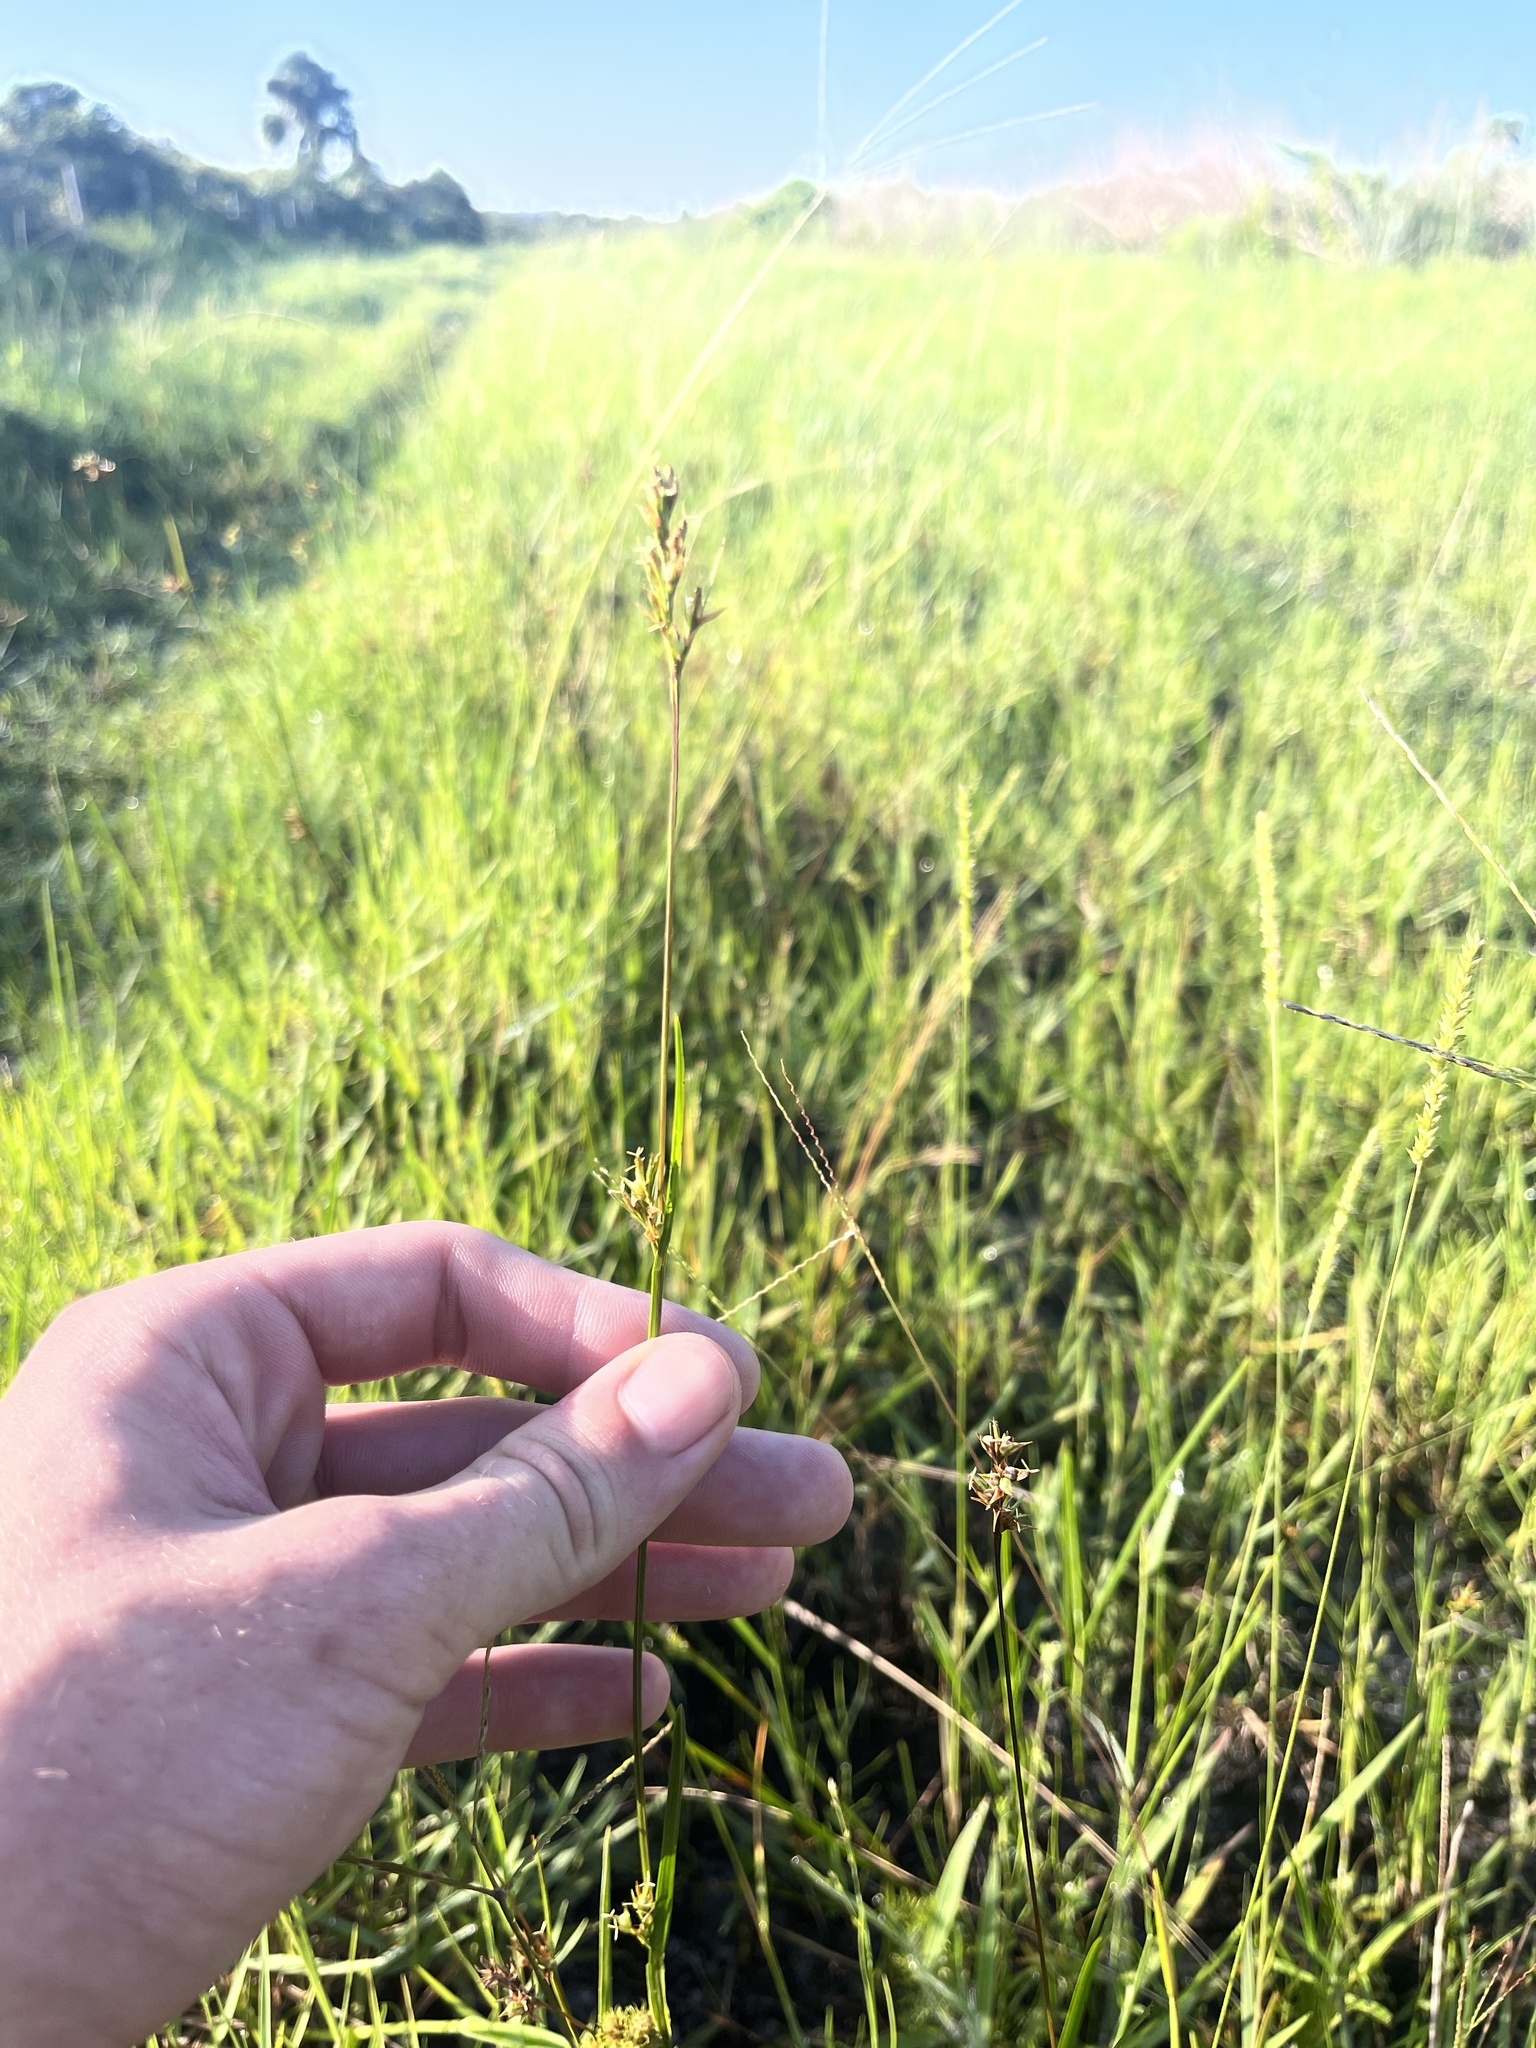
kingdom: Plantae
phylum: Tracheophyta
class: Liliopsida
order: Poales
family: Cyperaceae
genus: Scleria
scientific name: Scleria muehlenbergii
